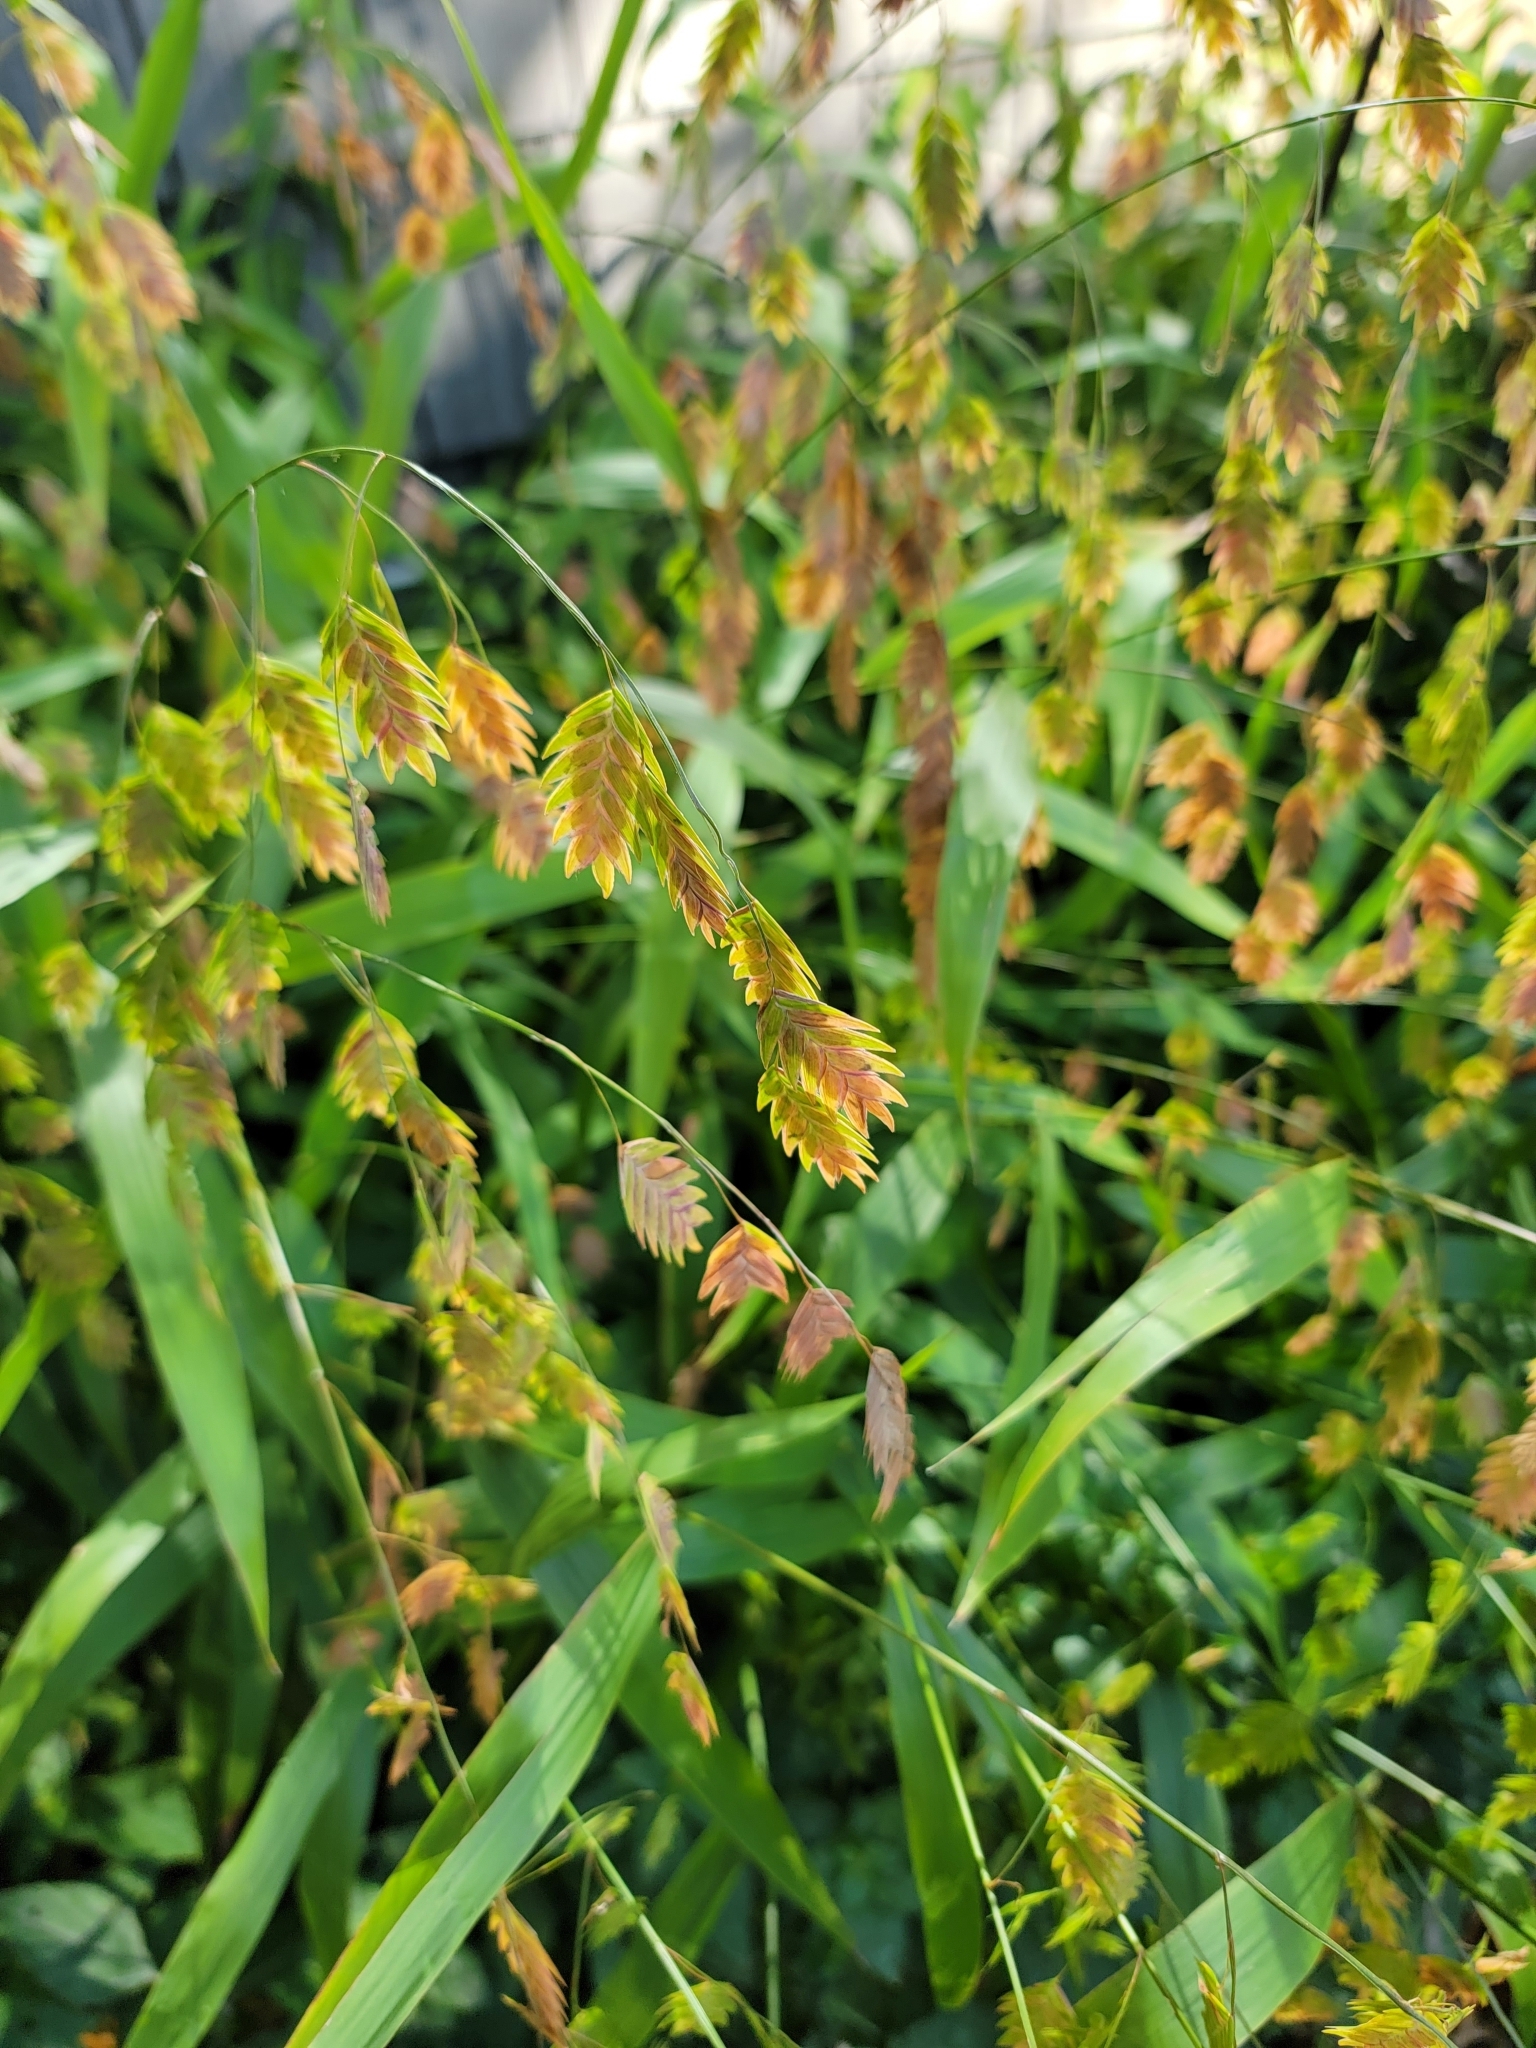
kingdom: Plantae
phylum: Tracheophyta
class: Liliopsida
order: Poales
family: Poaceae
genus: Chasmanthium
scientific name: Chasmanthium latifolium
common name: Broad-leaved chasmanthium
